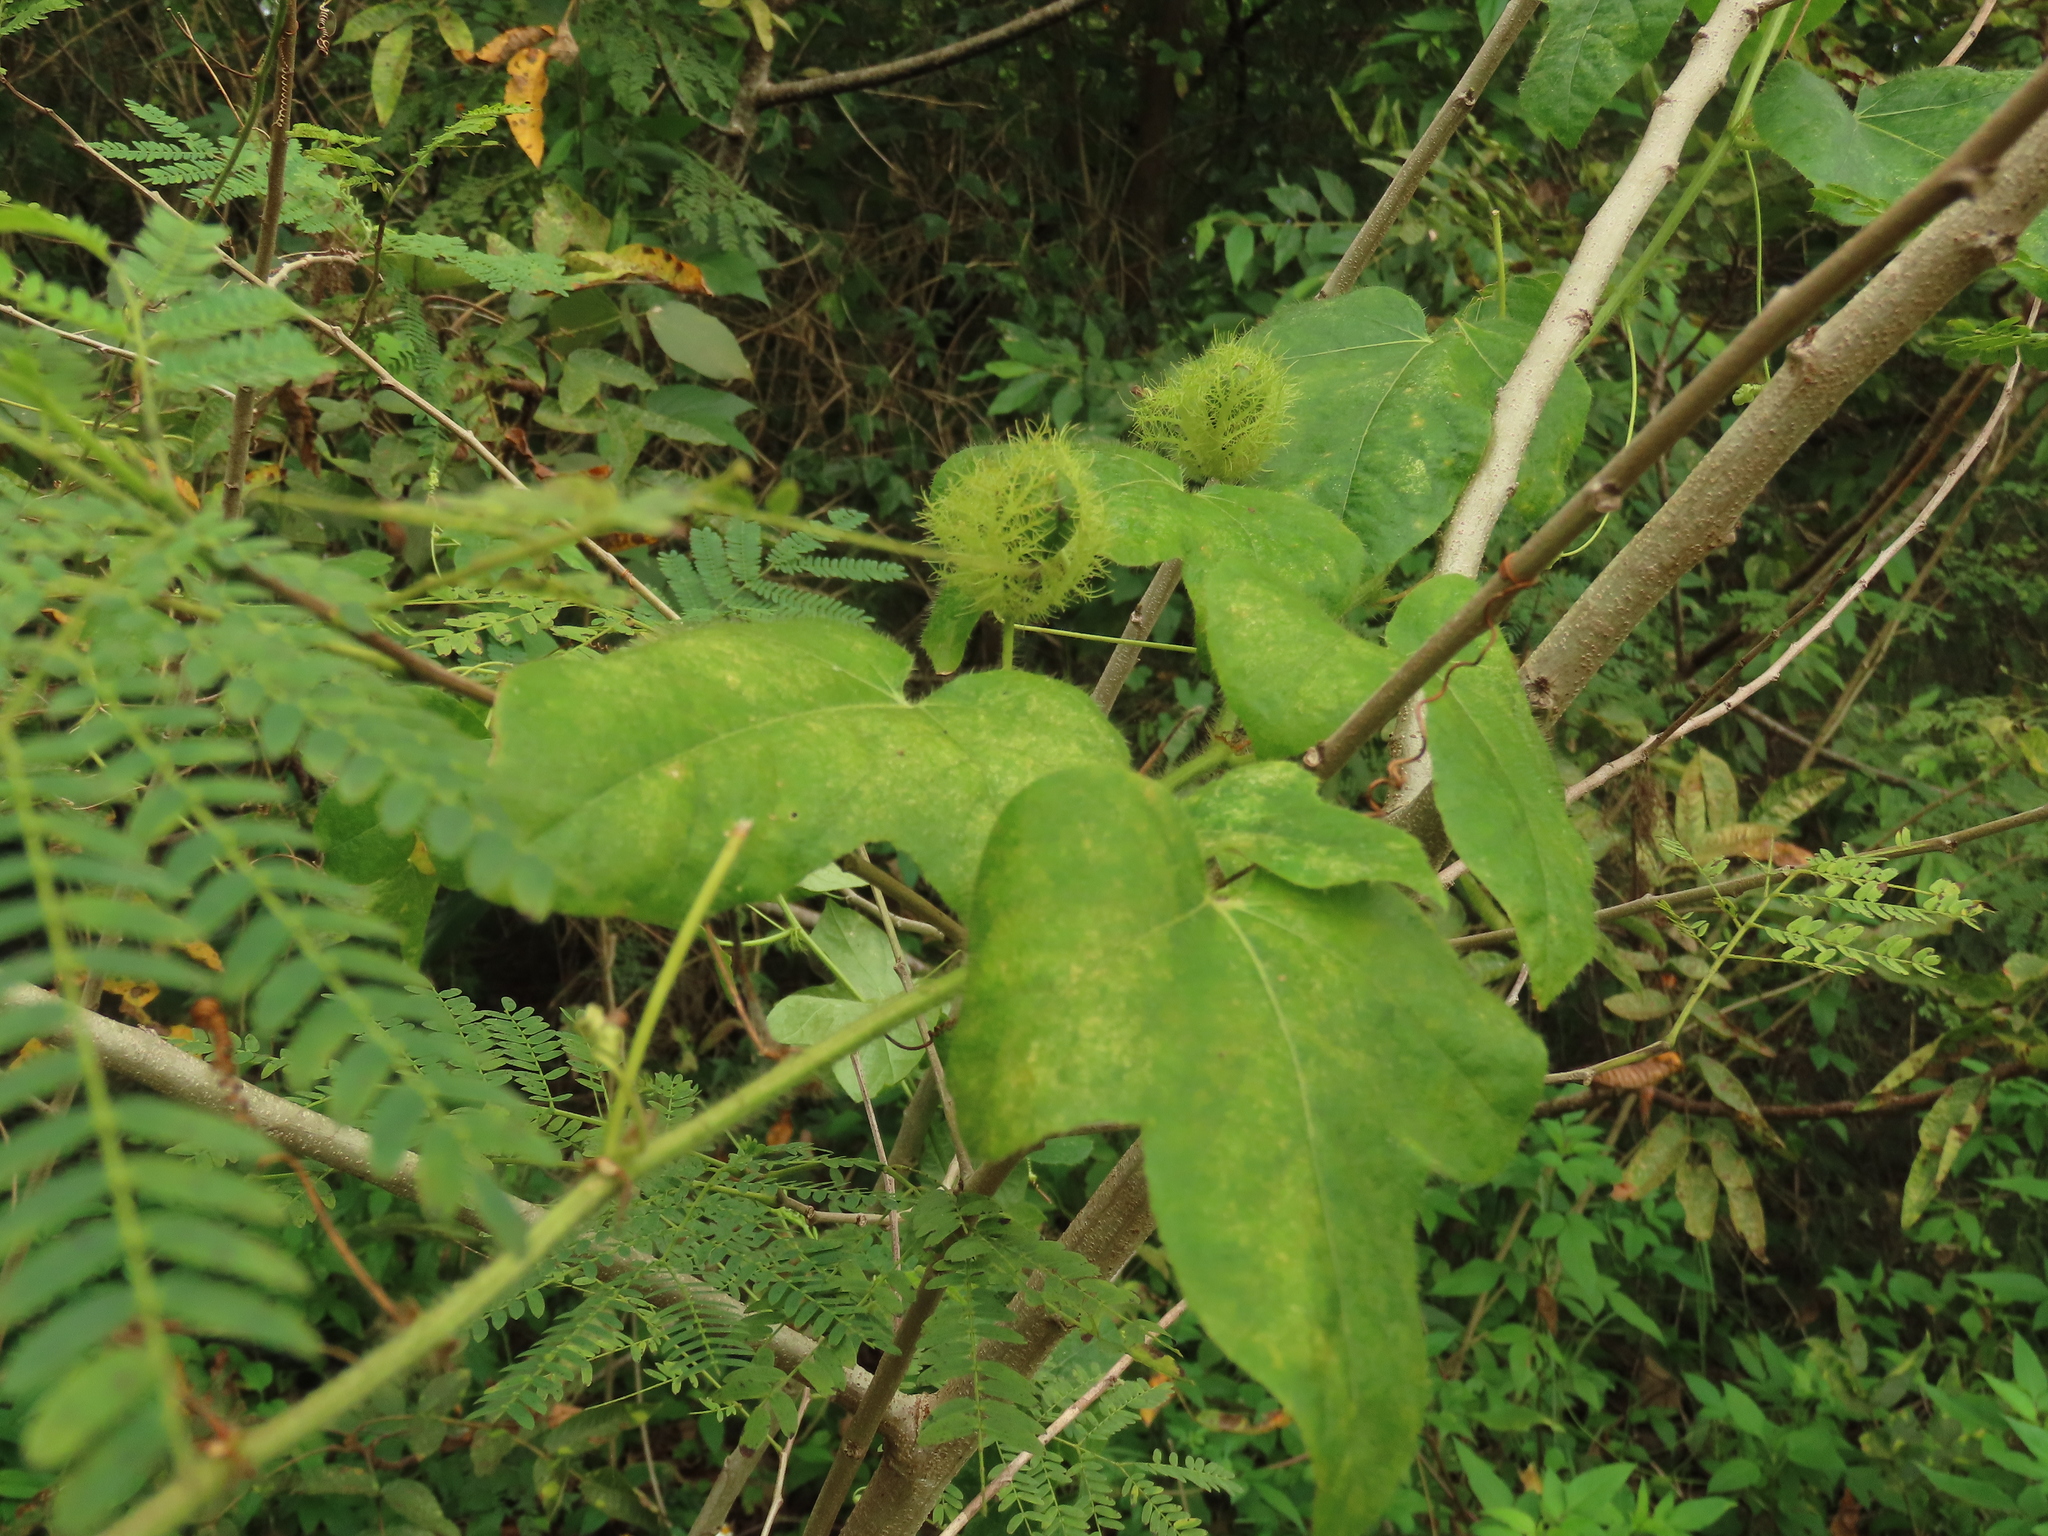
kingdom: Plantae
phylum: Tracheophyta
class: Magnoliopsida
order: Malpighiales
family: Passifloraceae
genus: Passiflora
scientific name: Passiflora vesicaria
